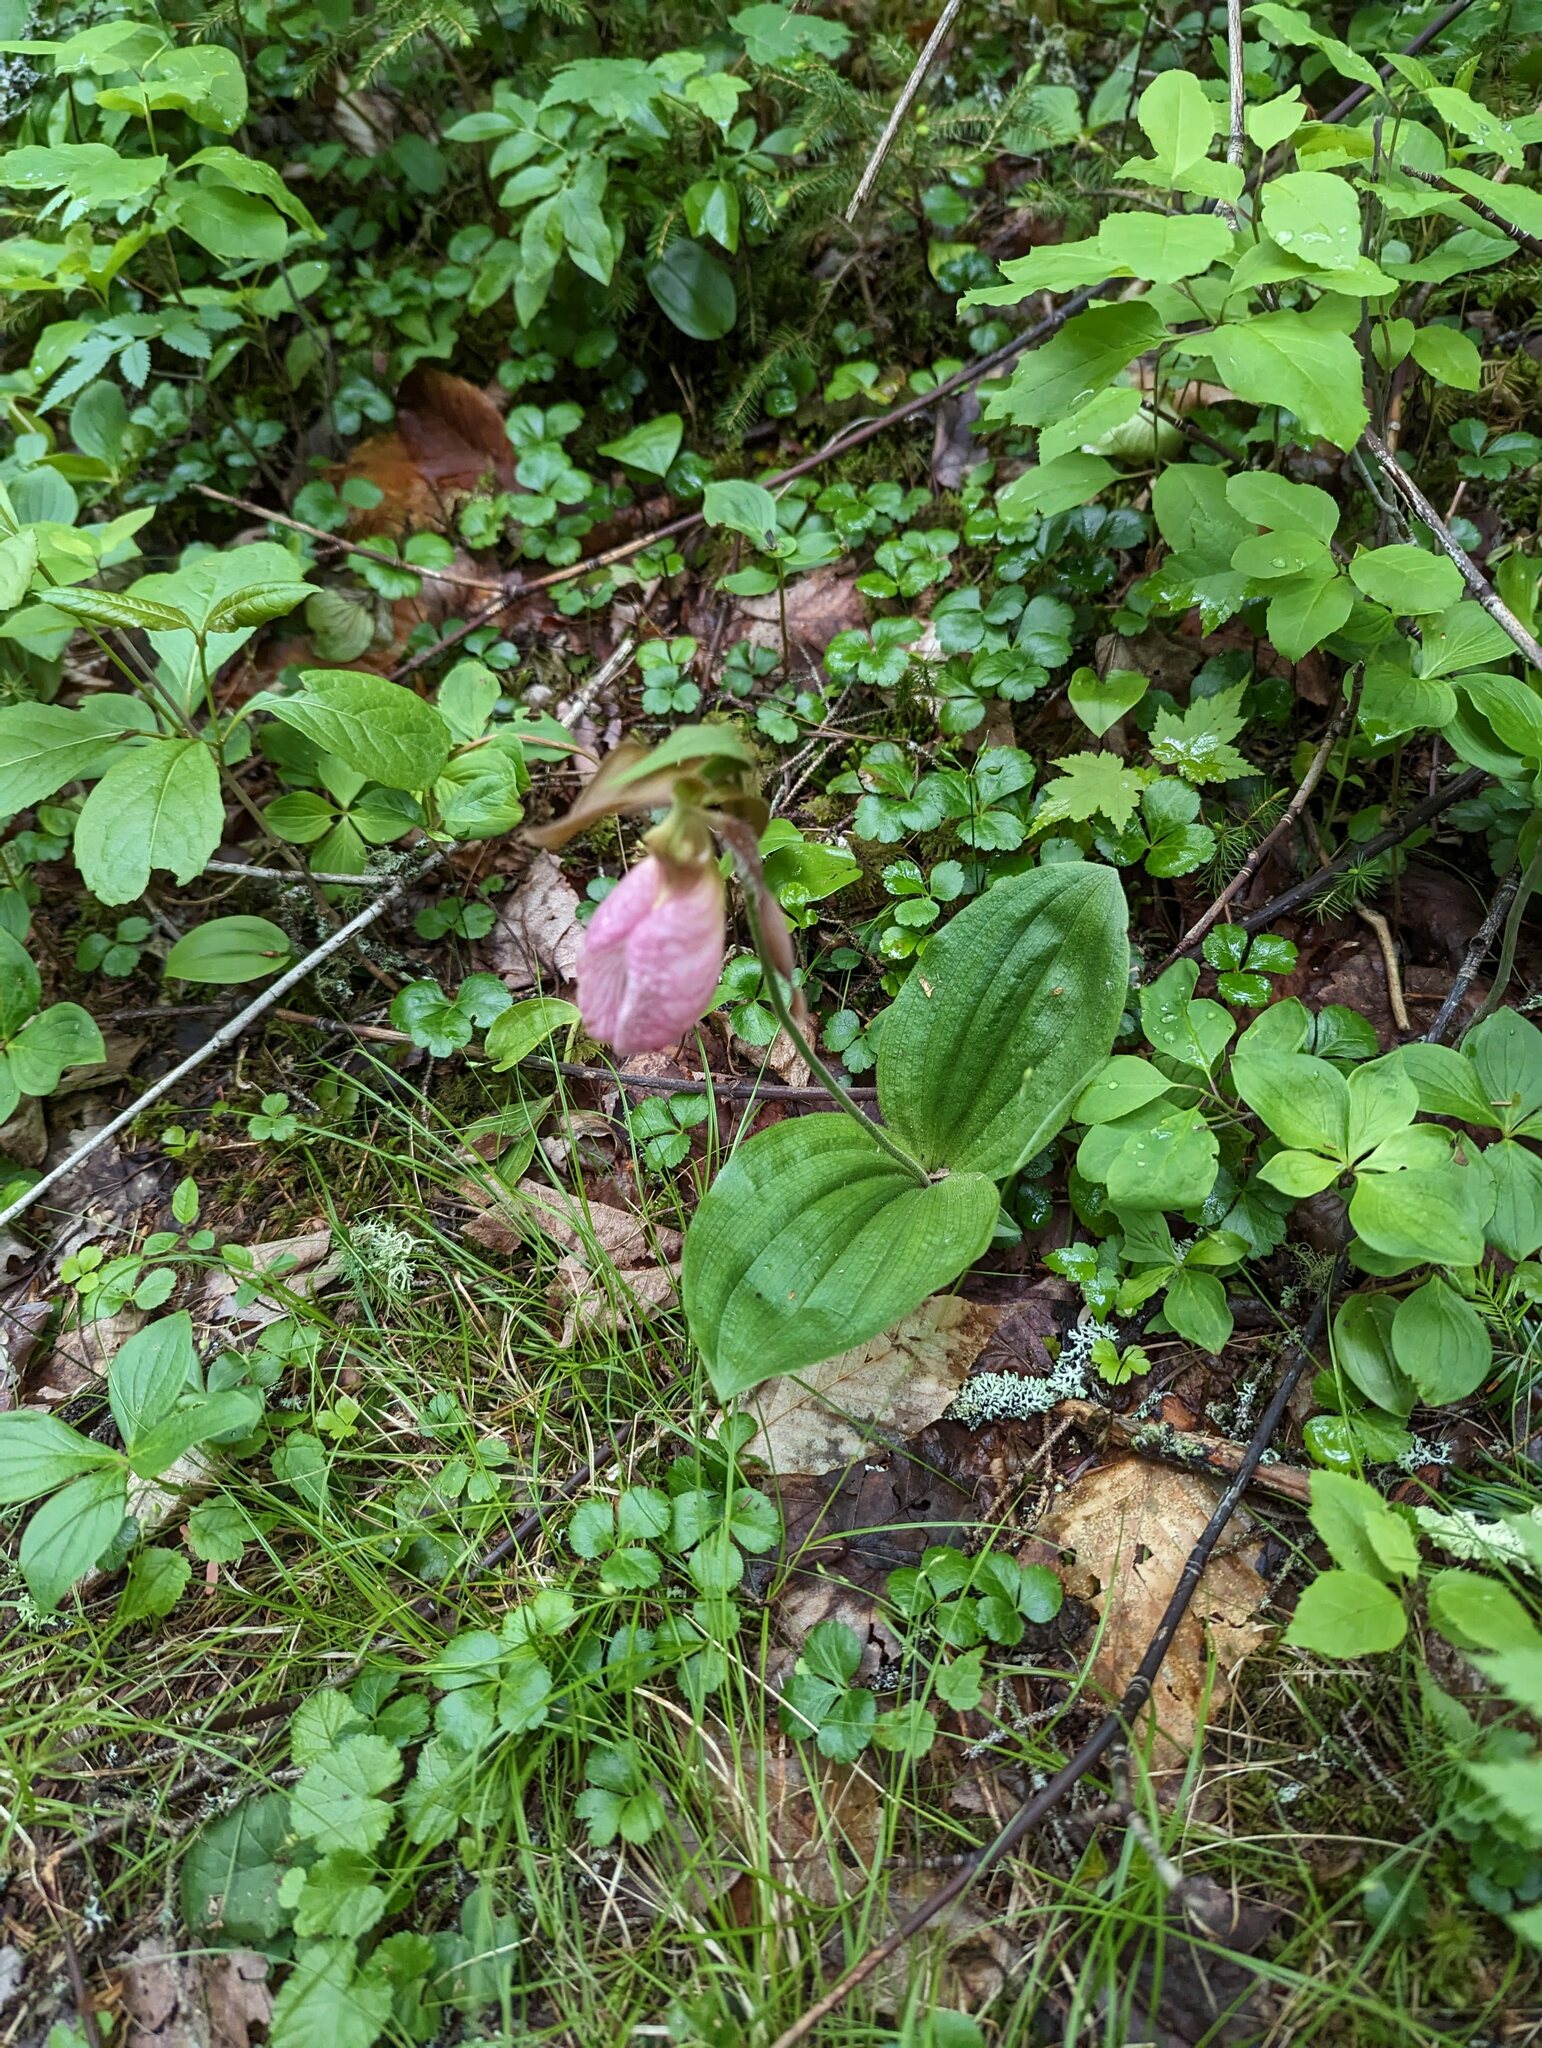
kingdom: Plantae
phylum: Tracheophyta
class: Liliopsida
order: Asparagales
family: Orchidaceae
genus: Cypripedium
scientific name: Cypripedium acaule
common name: Pink lady's-slipper
